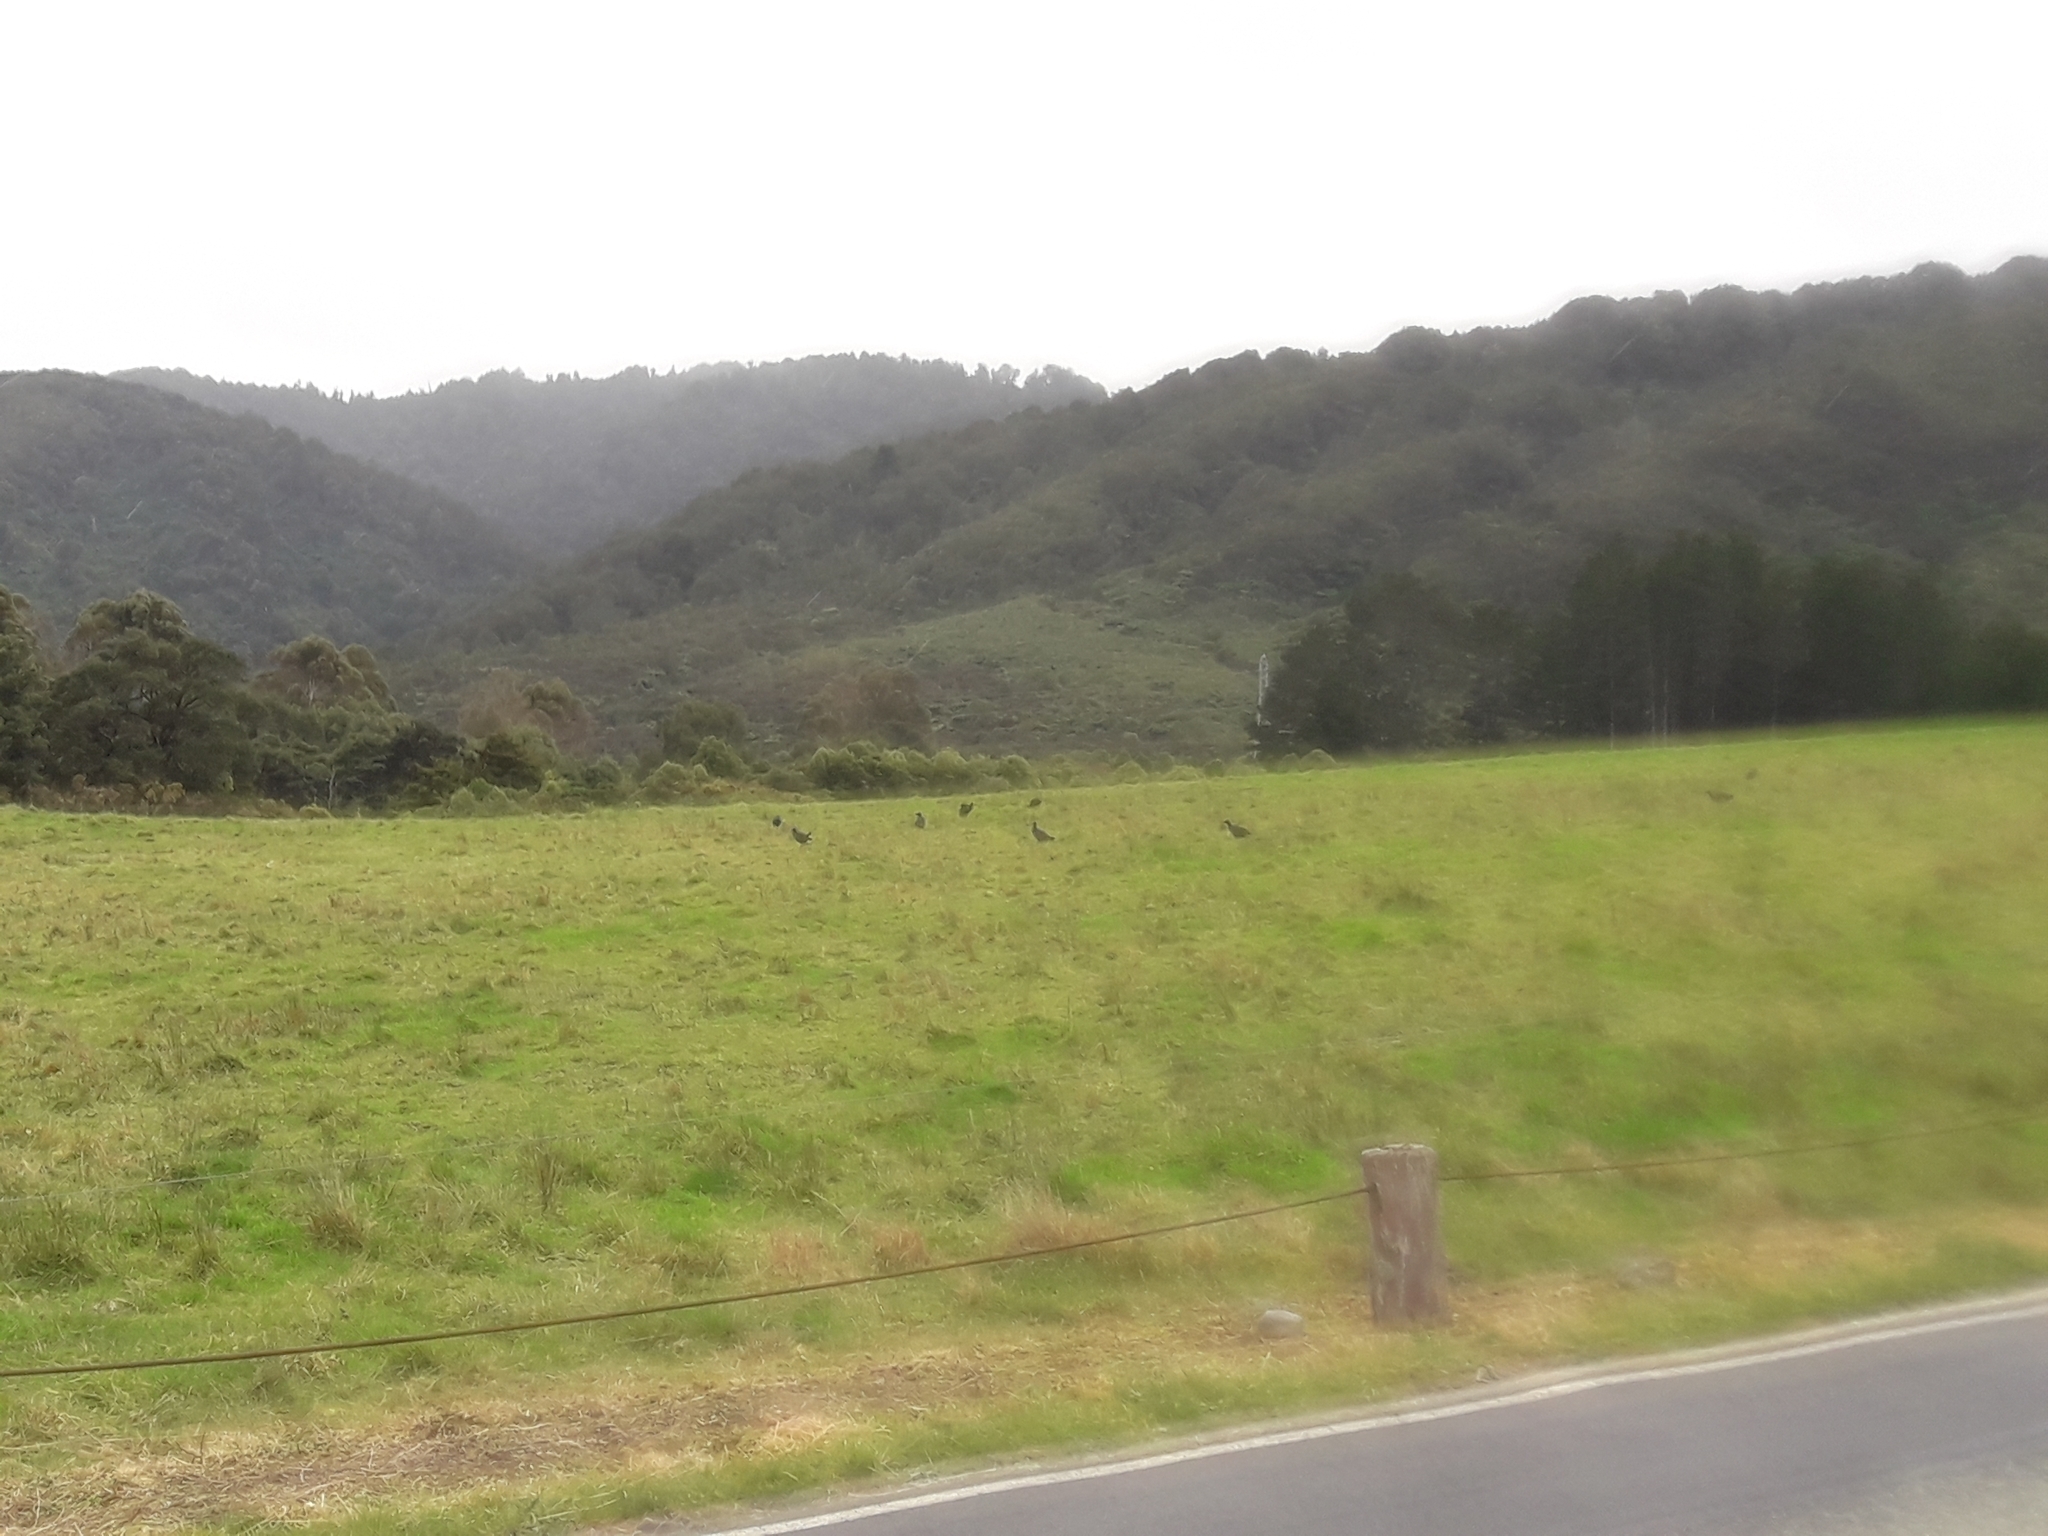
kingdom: Animalia
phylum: Chordata
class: Aves
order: Gruiformes
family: Rallidae
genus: Porphyrio
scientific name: Porphyrio melanotus
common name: Australasian swamphen
